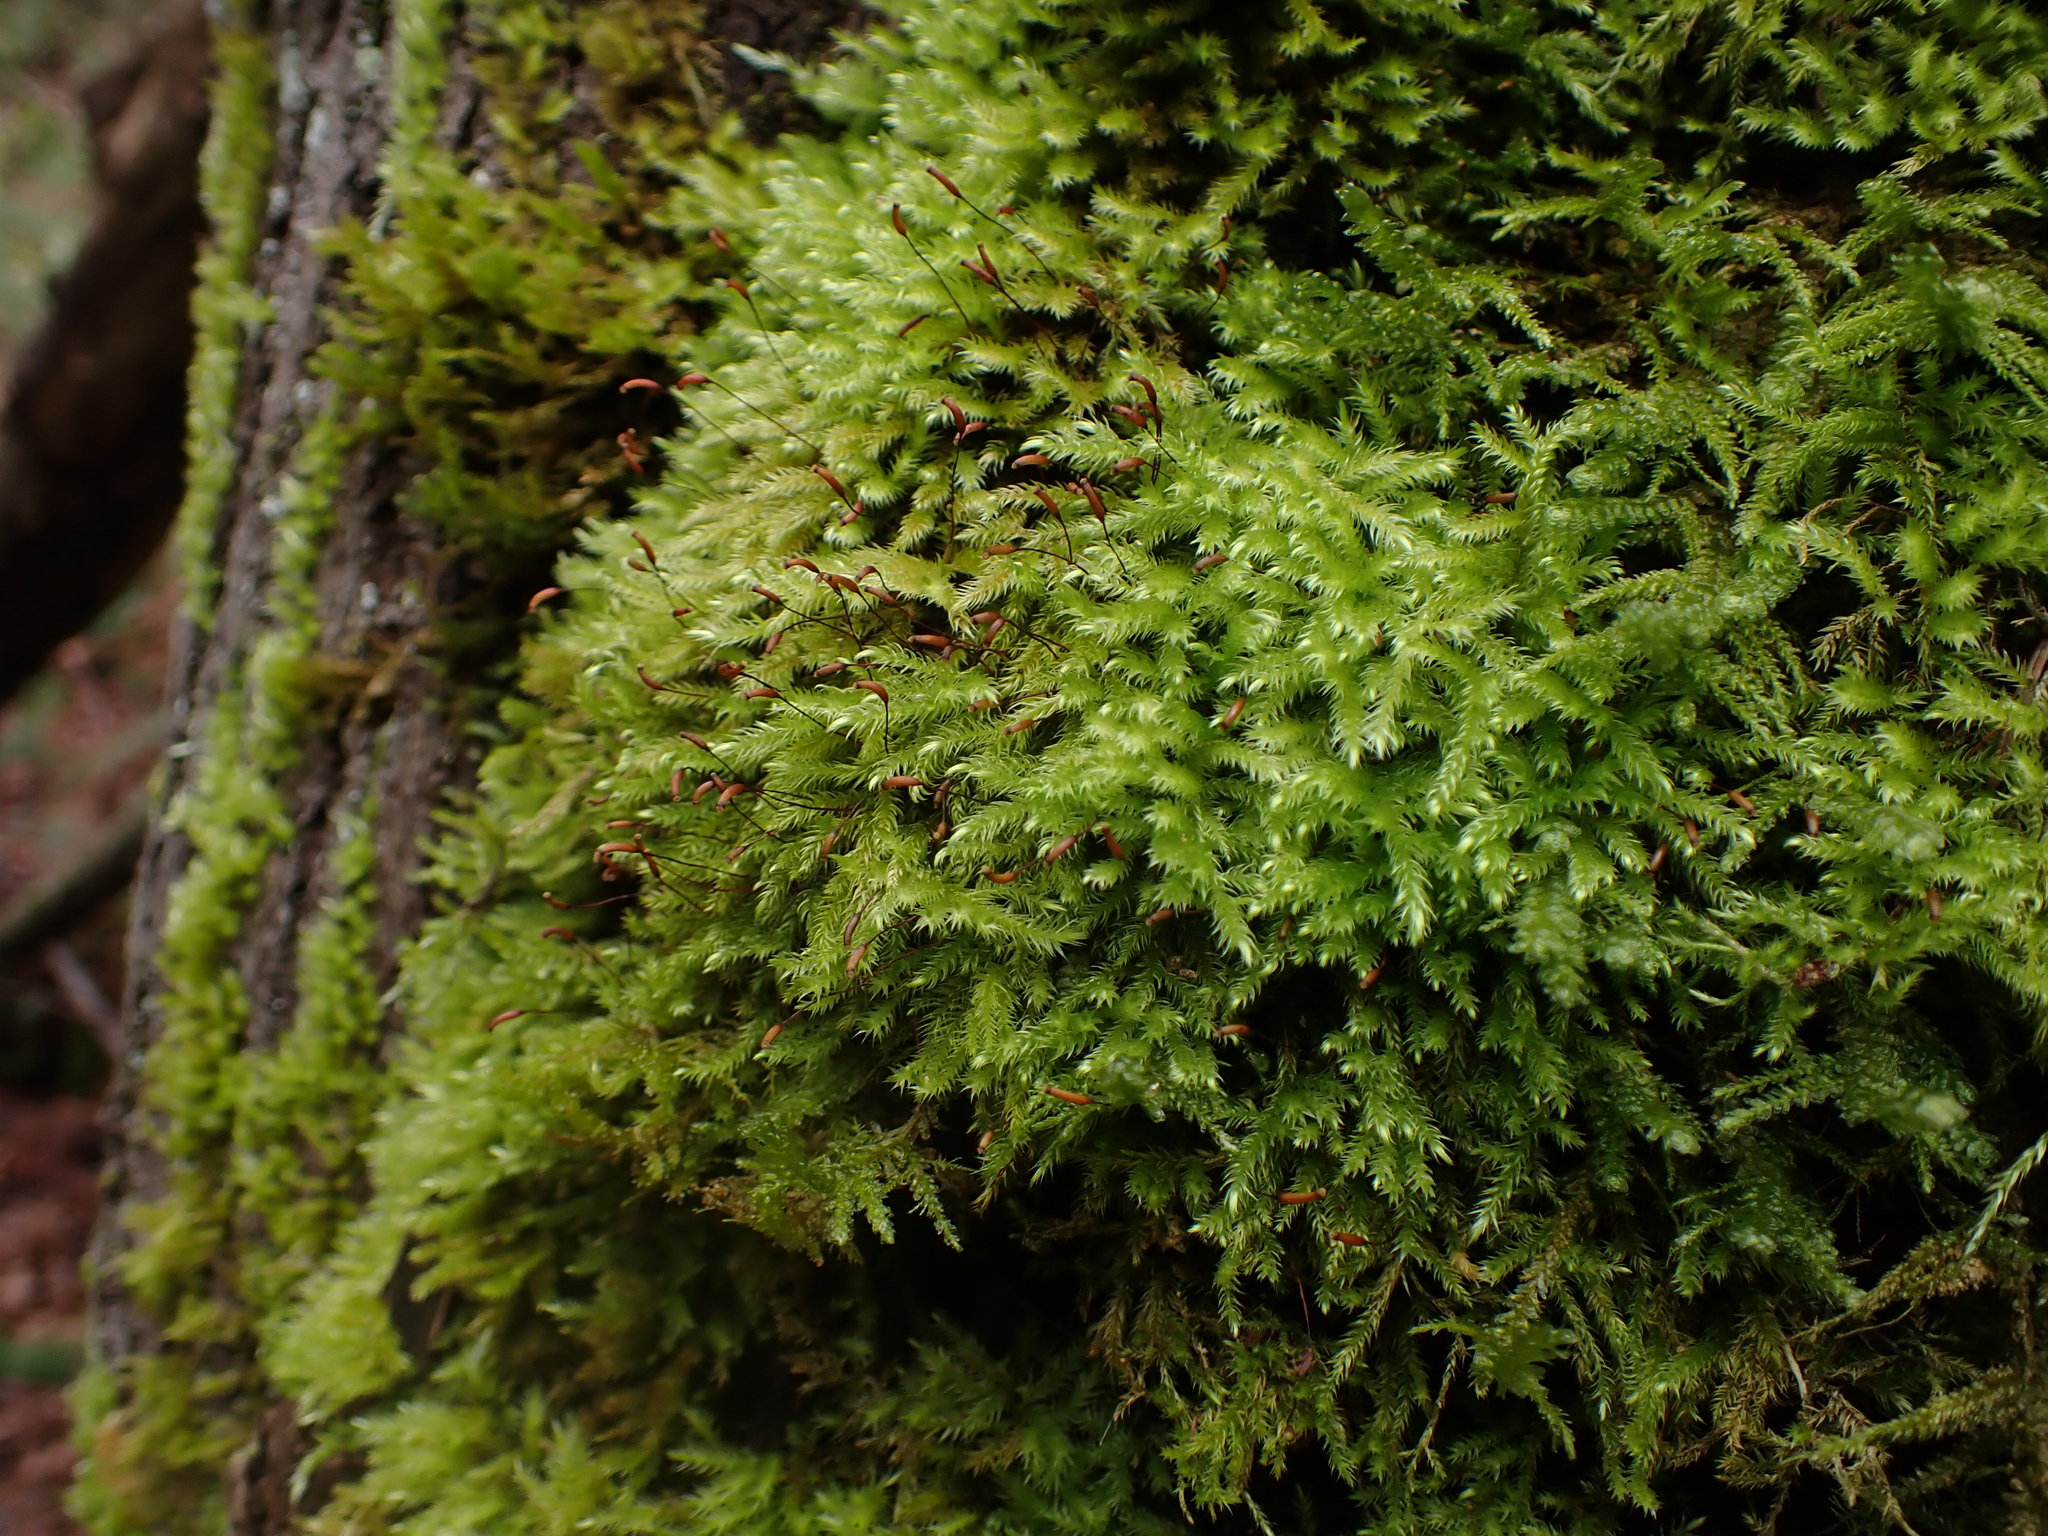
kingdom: Plantae
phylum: Bryophyta
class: Bryopsida
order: Hypnales
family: Brachytheciaceae
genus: Homalothecium
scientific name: Homalothecium fulgescens
